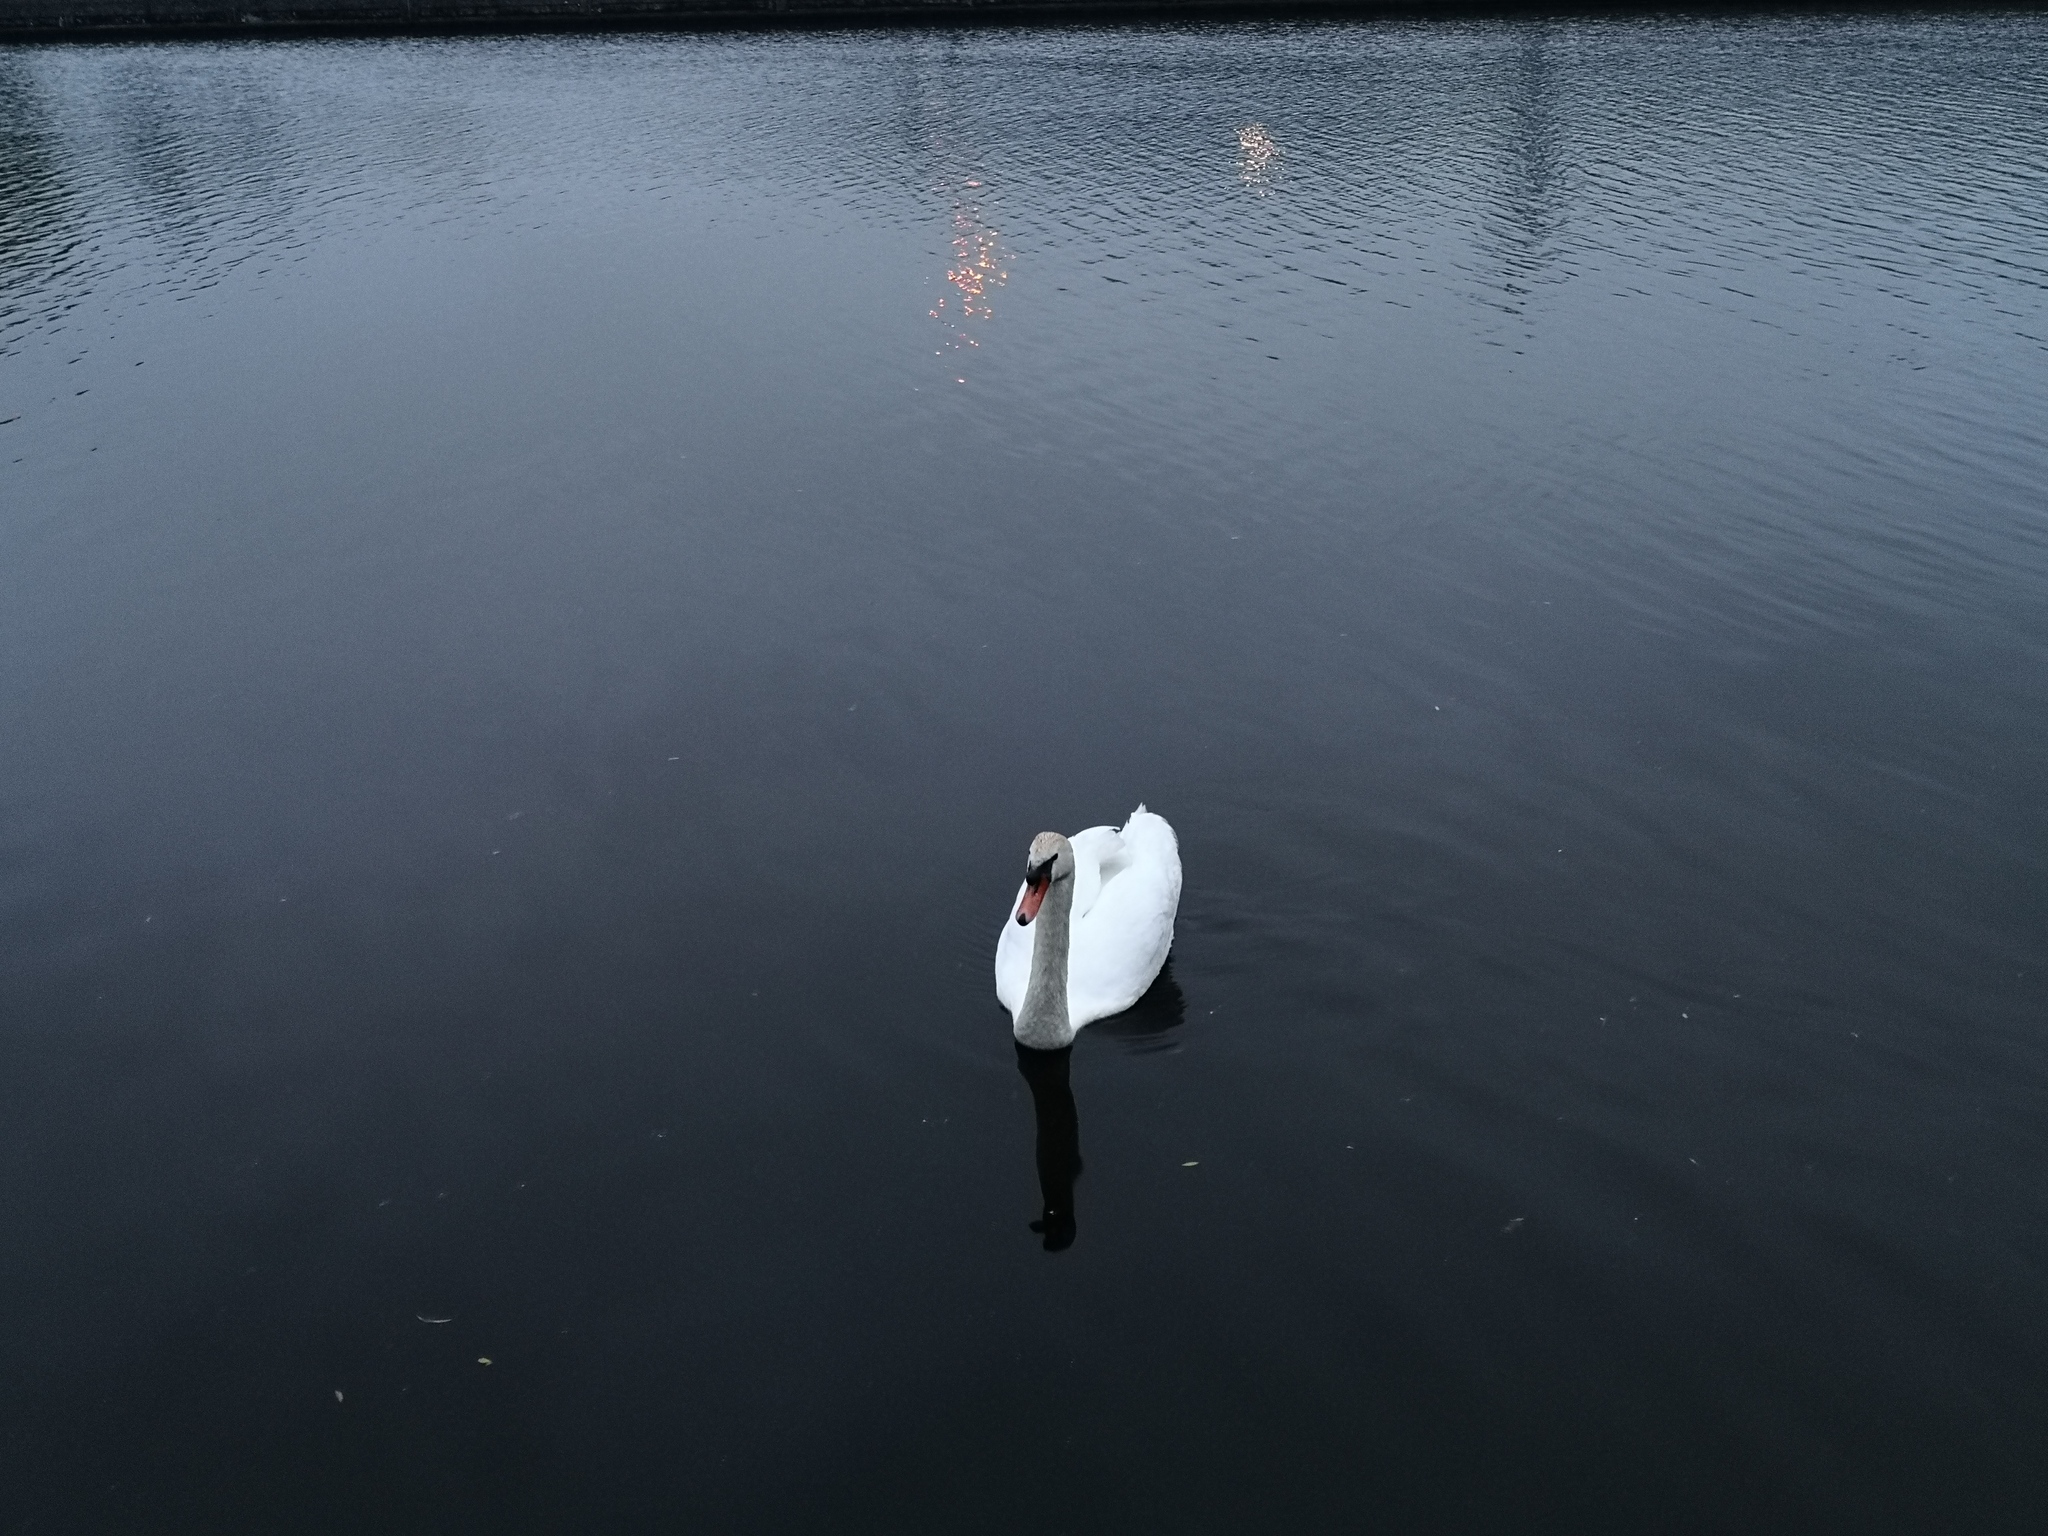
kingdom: Animalia
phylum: Chordata
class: Aves
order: Anseriformes
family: Anatidae
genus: Cygnus
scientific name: Cygnus olor
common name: Mute swan
